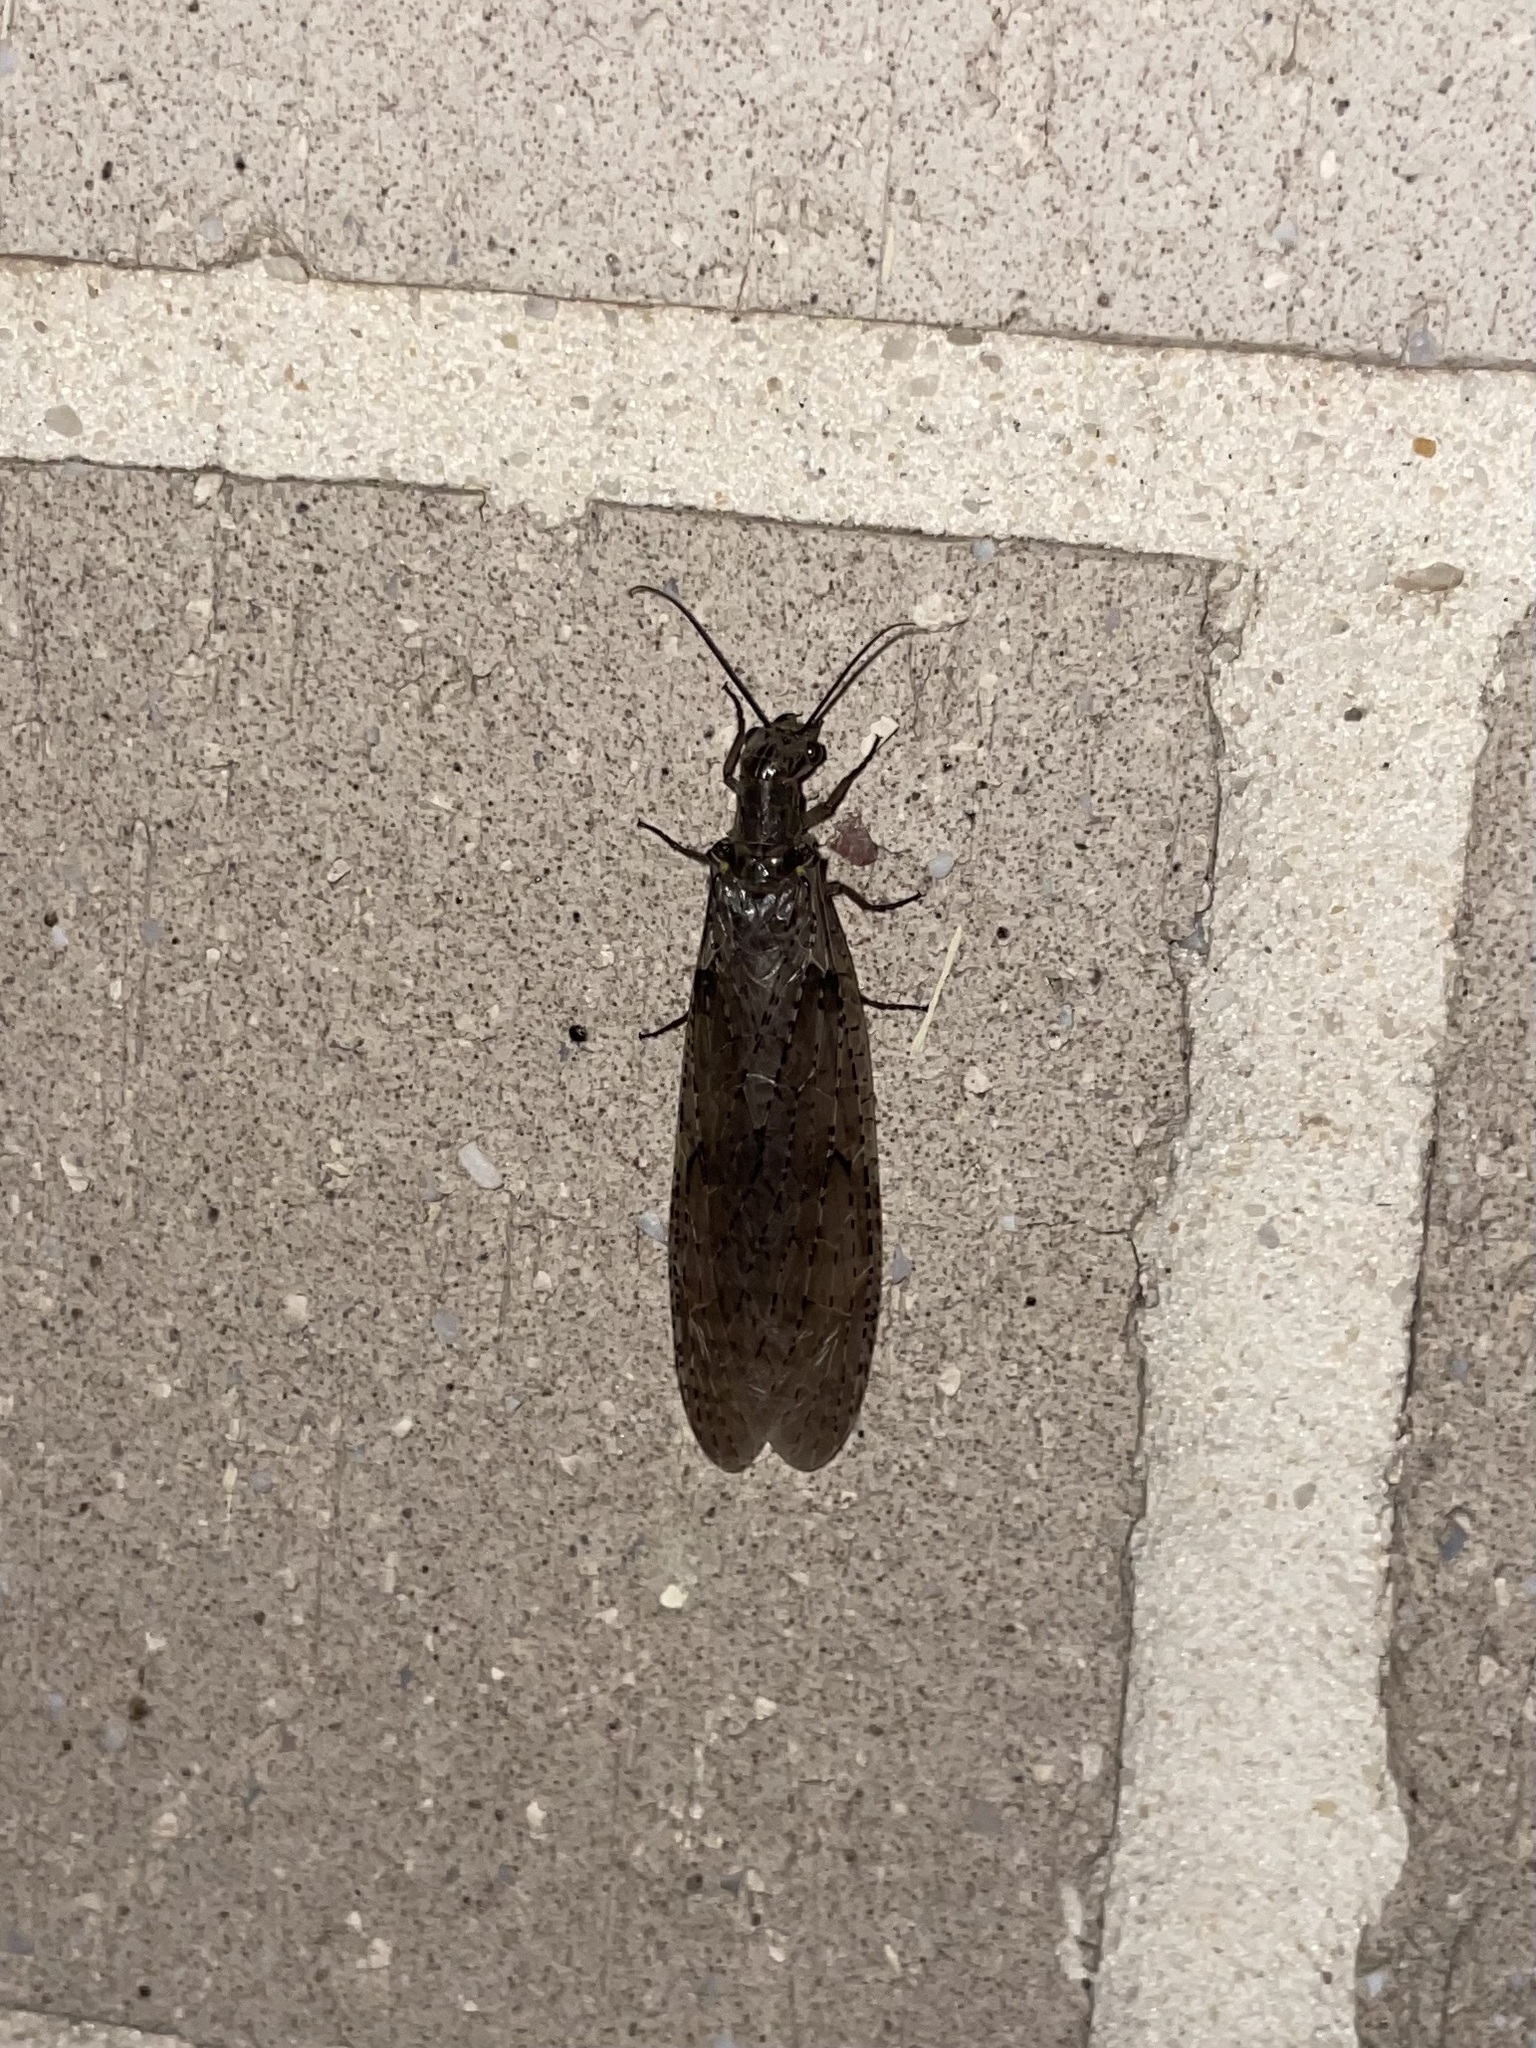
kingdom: Animalia
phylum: Arthropoda
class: Insecta
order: Megaloptera
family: Corydalidae
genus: Chauliodes
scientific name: Chauliodes rastricornis
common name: Spring fishfly
